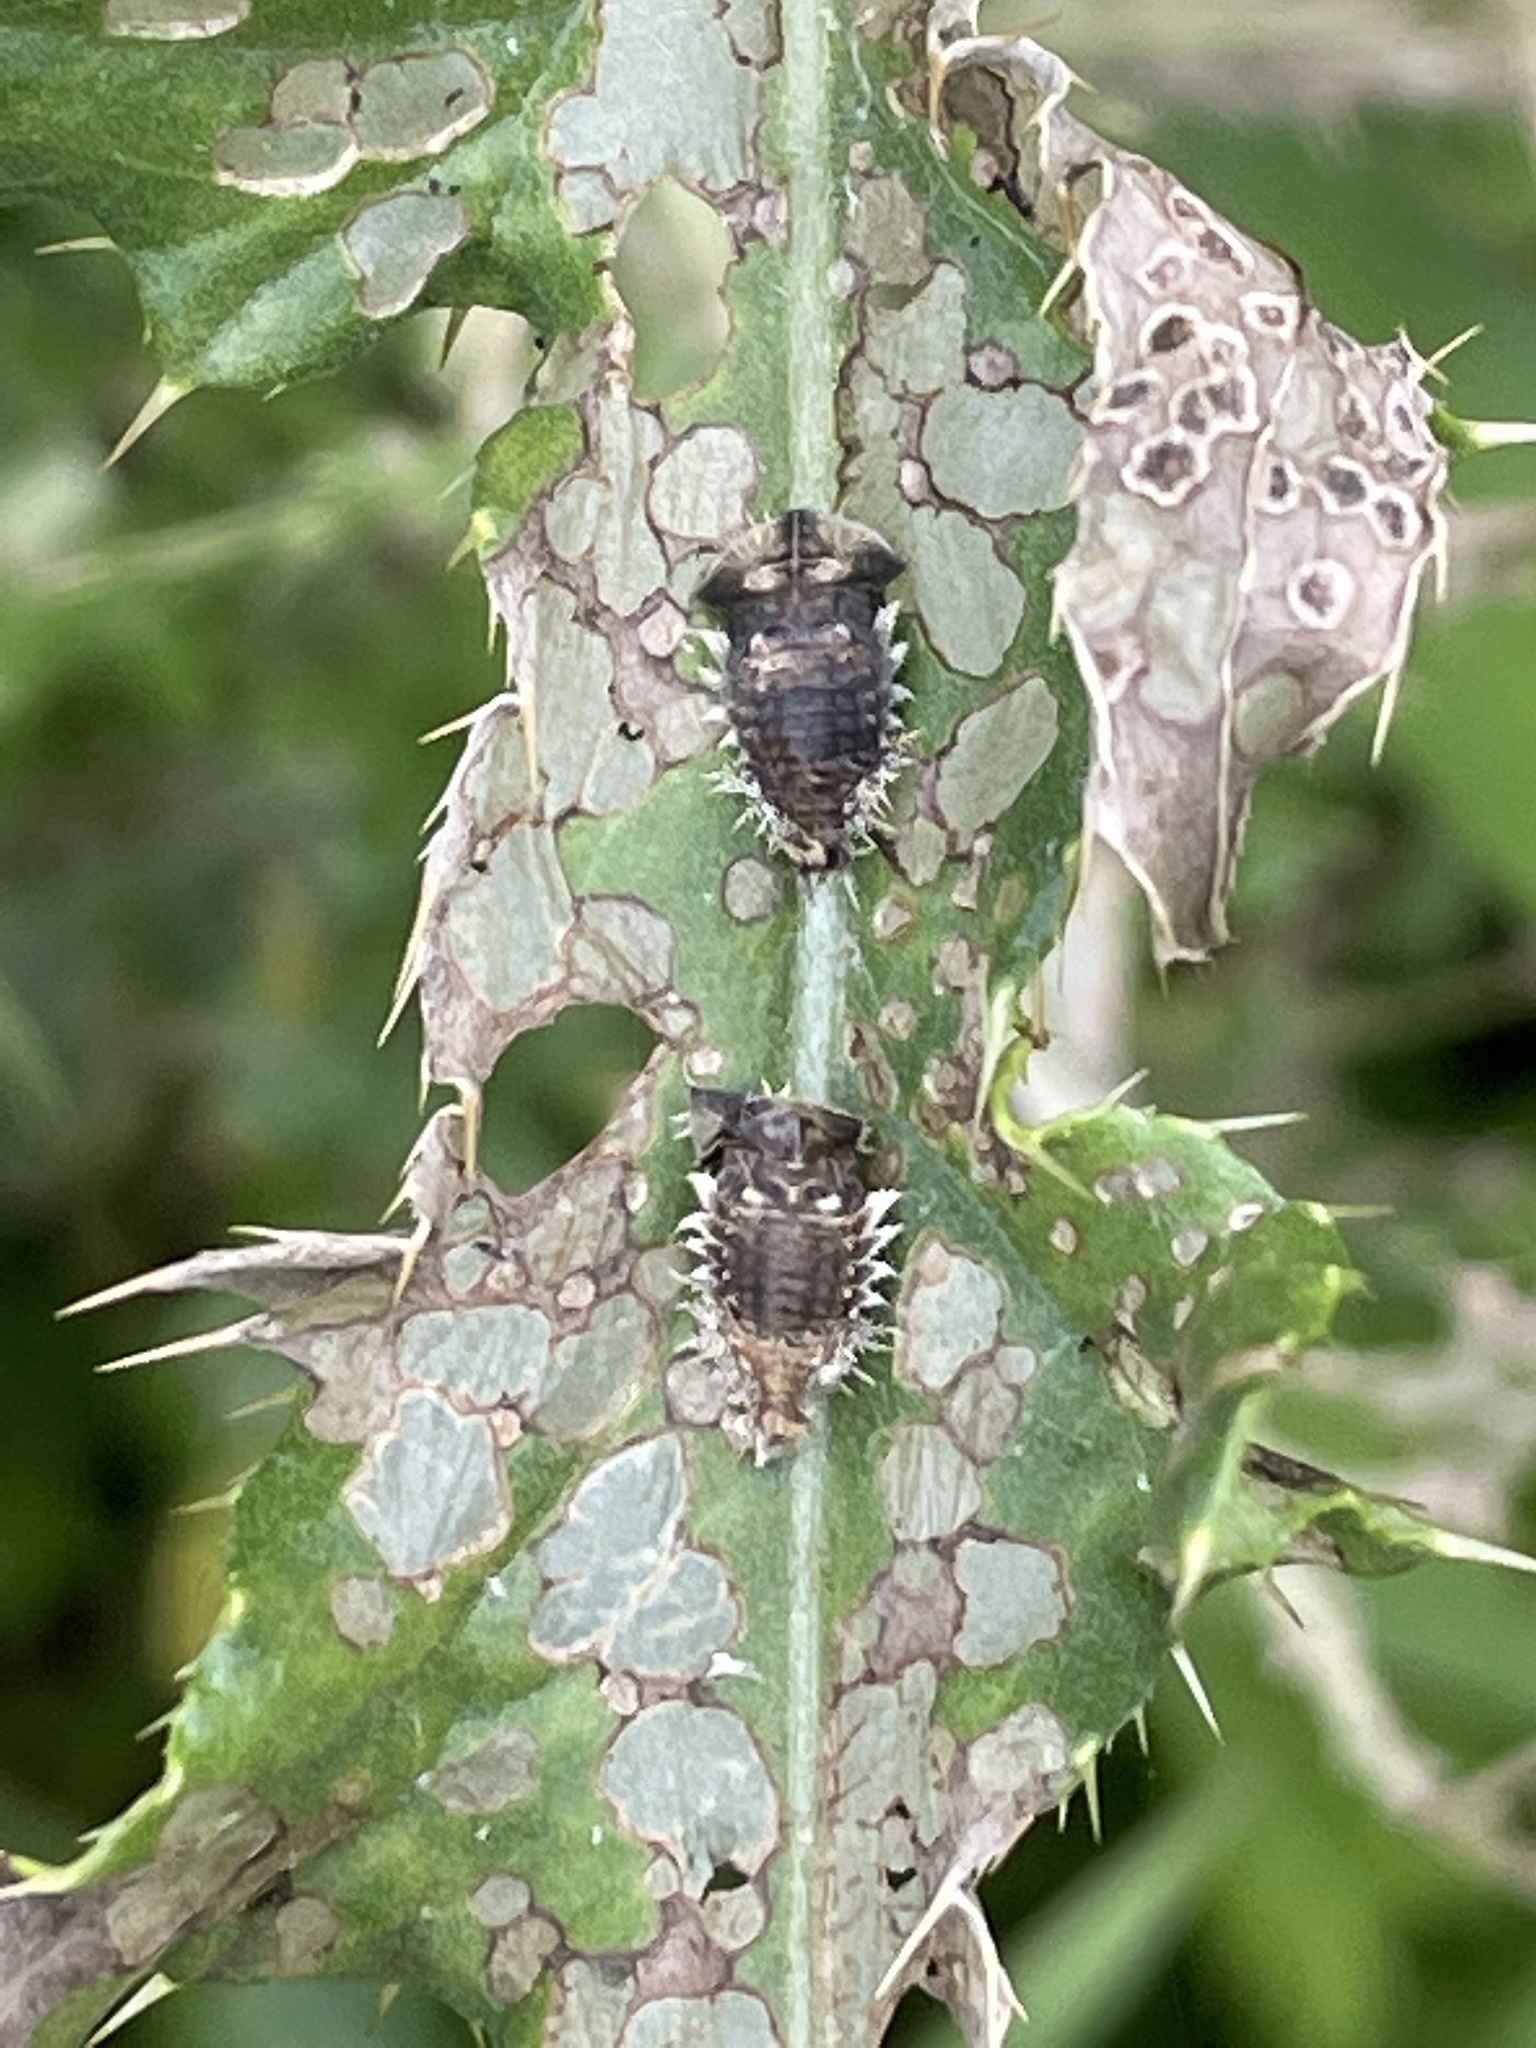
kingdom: Animalia
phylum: Arthropoda
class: Insecta
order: Coleoptera
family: Chrysomelidae
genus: Cassida
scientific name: Cassida rubiginosa
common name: Thistle tortoise beetle
